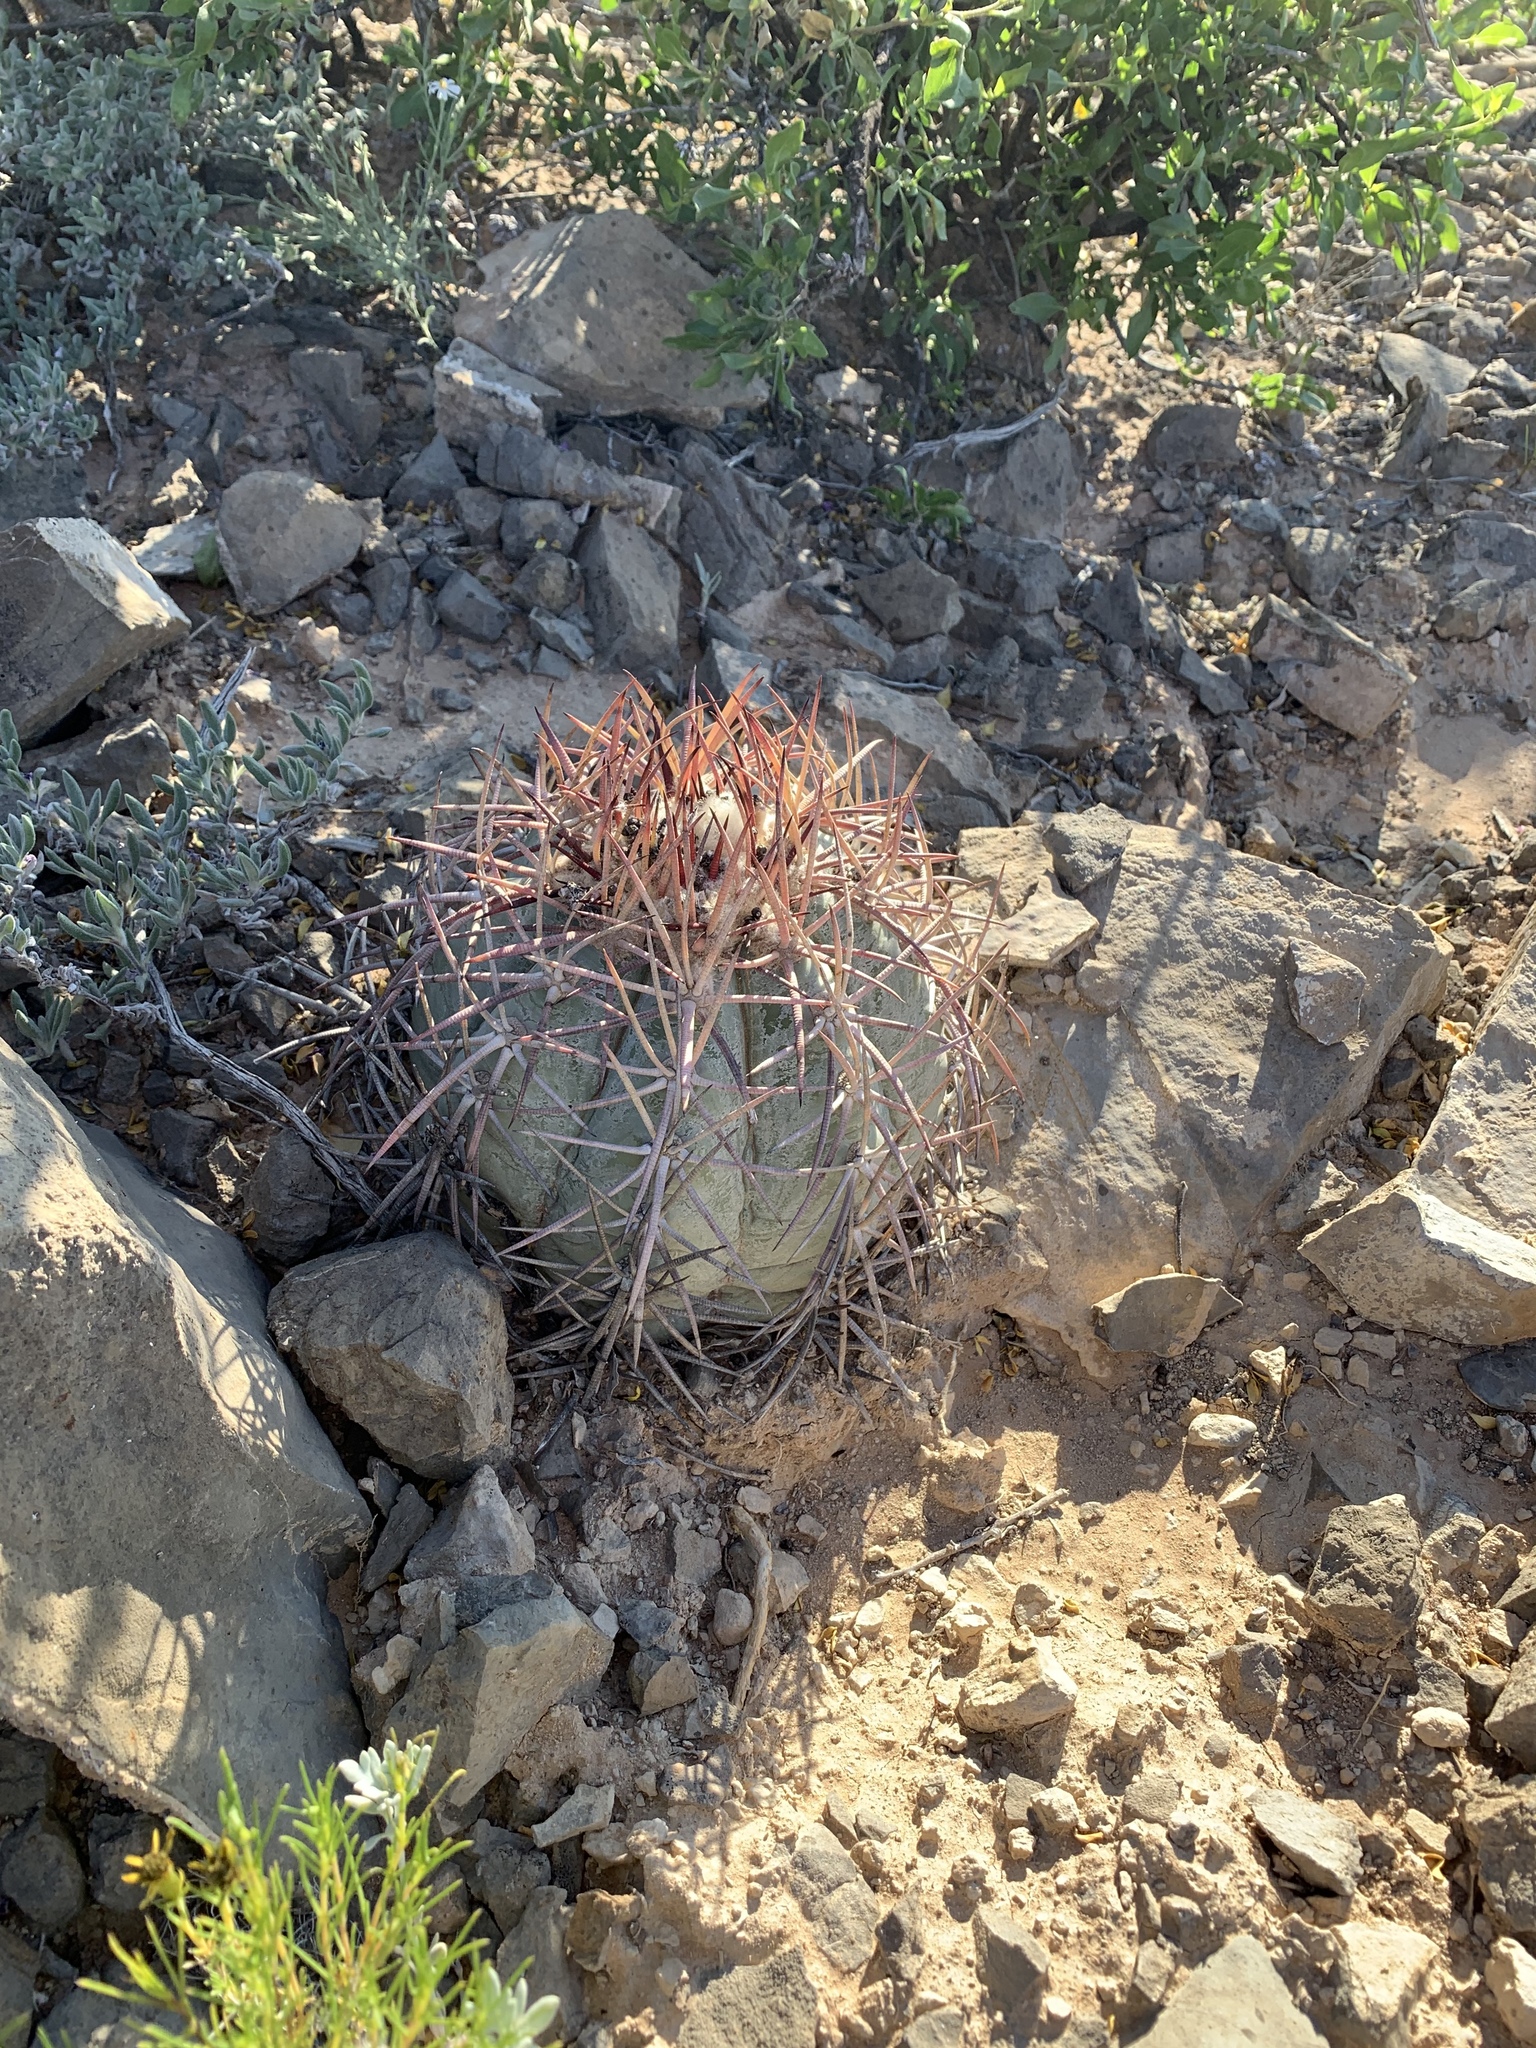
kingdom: Plantae
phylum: Tracheophyta
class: Magnoliopsida
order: Caryophyllales
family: Cactaceae
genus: Echinocactus
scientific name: Echinocactus horizonthalonius
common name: Devilshead
